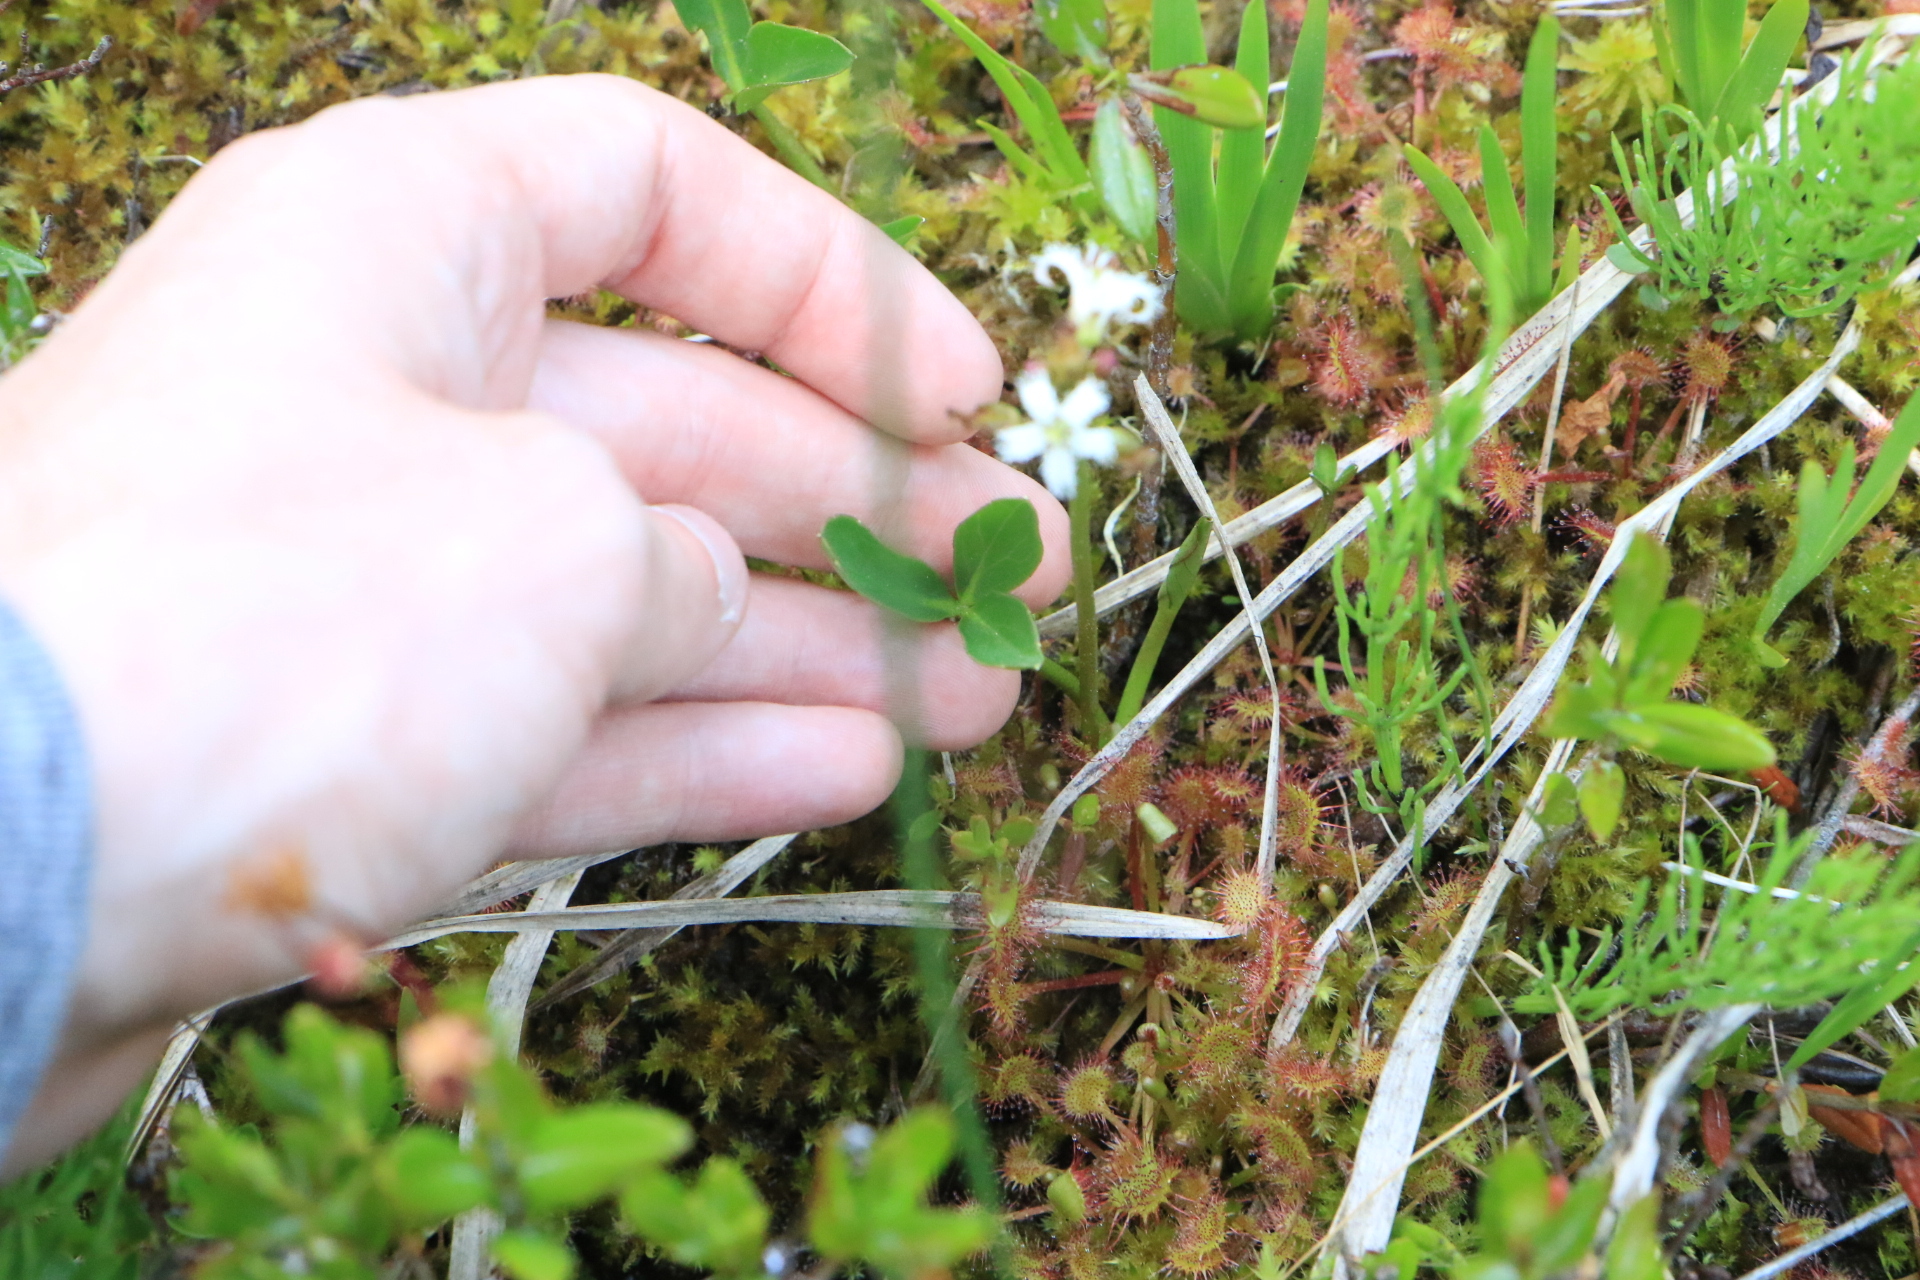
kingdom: Plantae
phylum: Tracheophyta
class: Magnoliopsida
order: Asterales
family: Menyanthaceae
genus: Menyanthes
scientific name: Menyanthes trifoliata
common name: Bogbean
